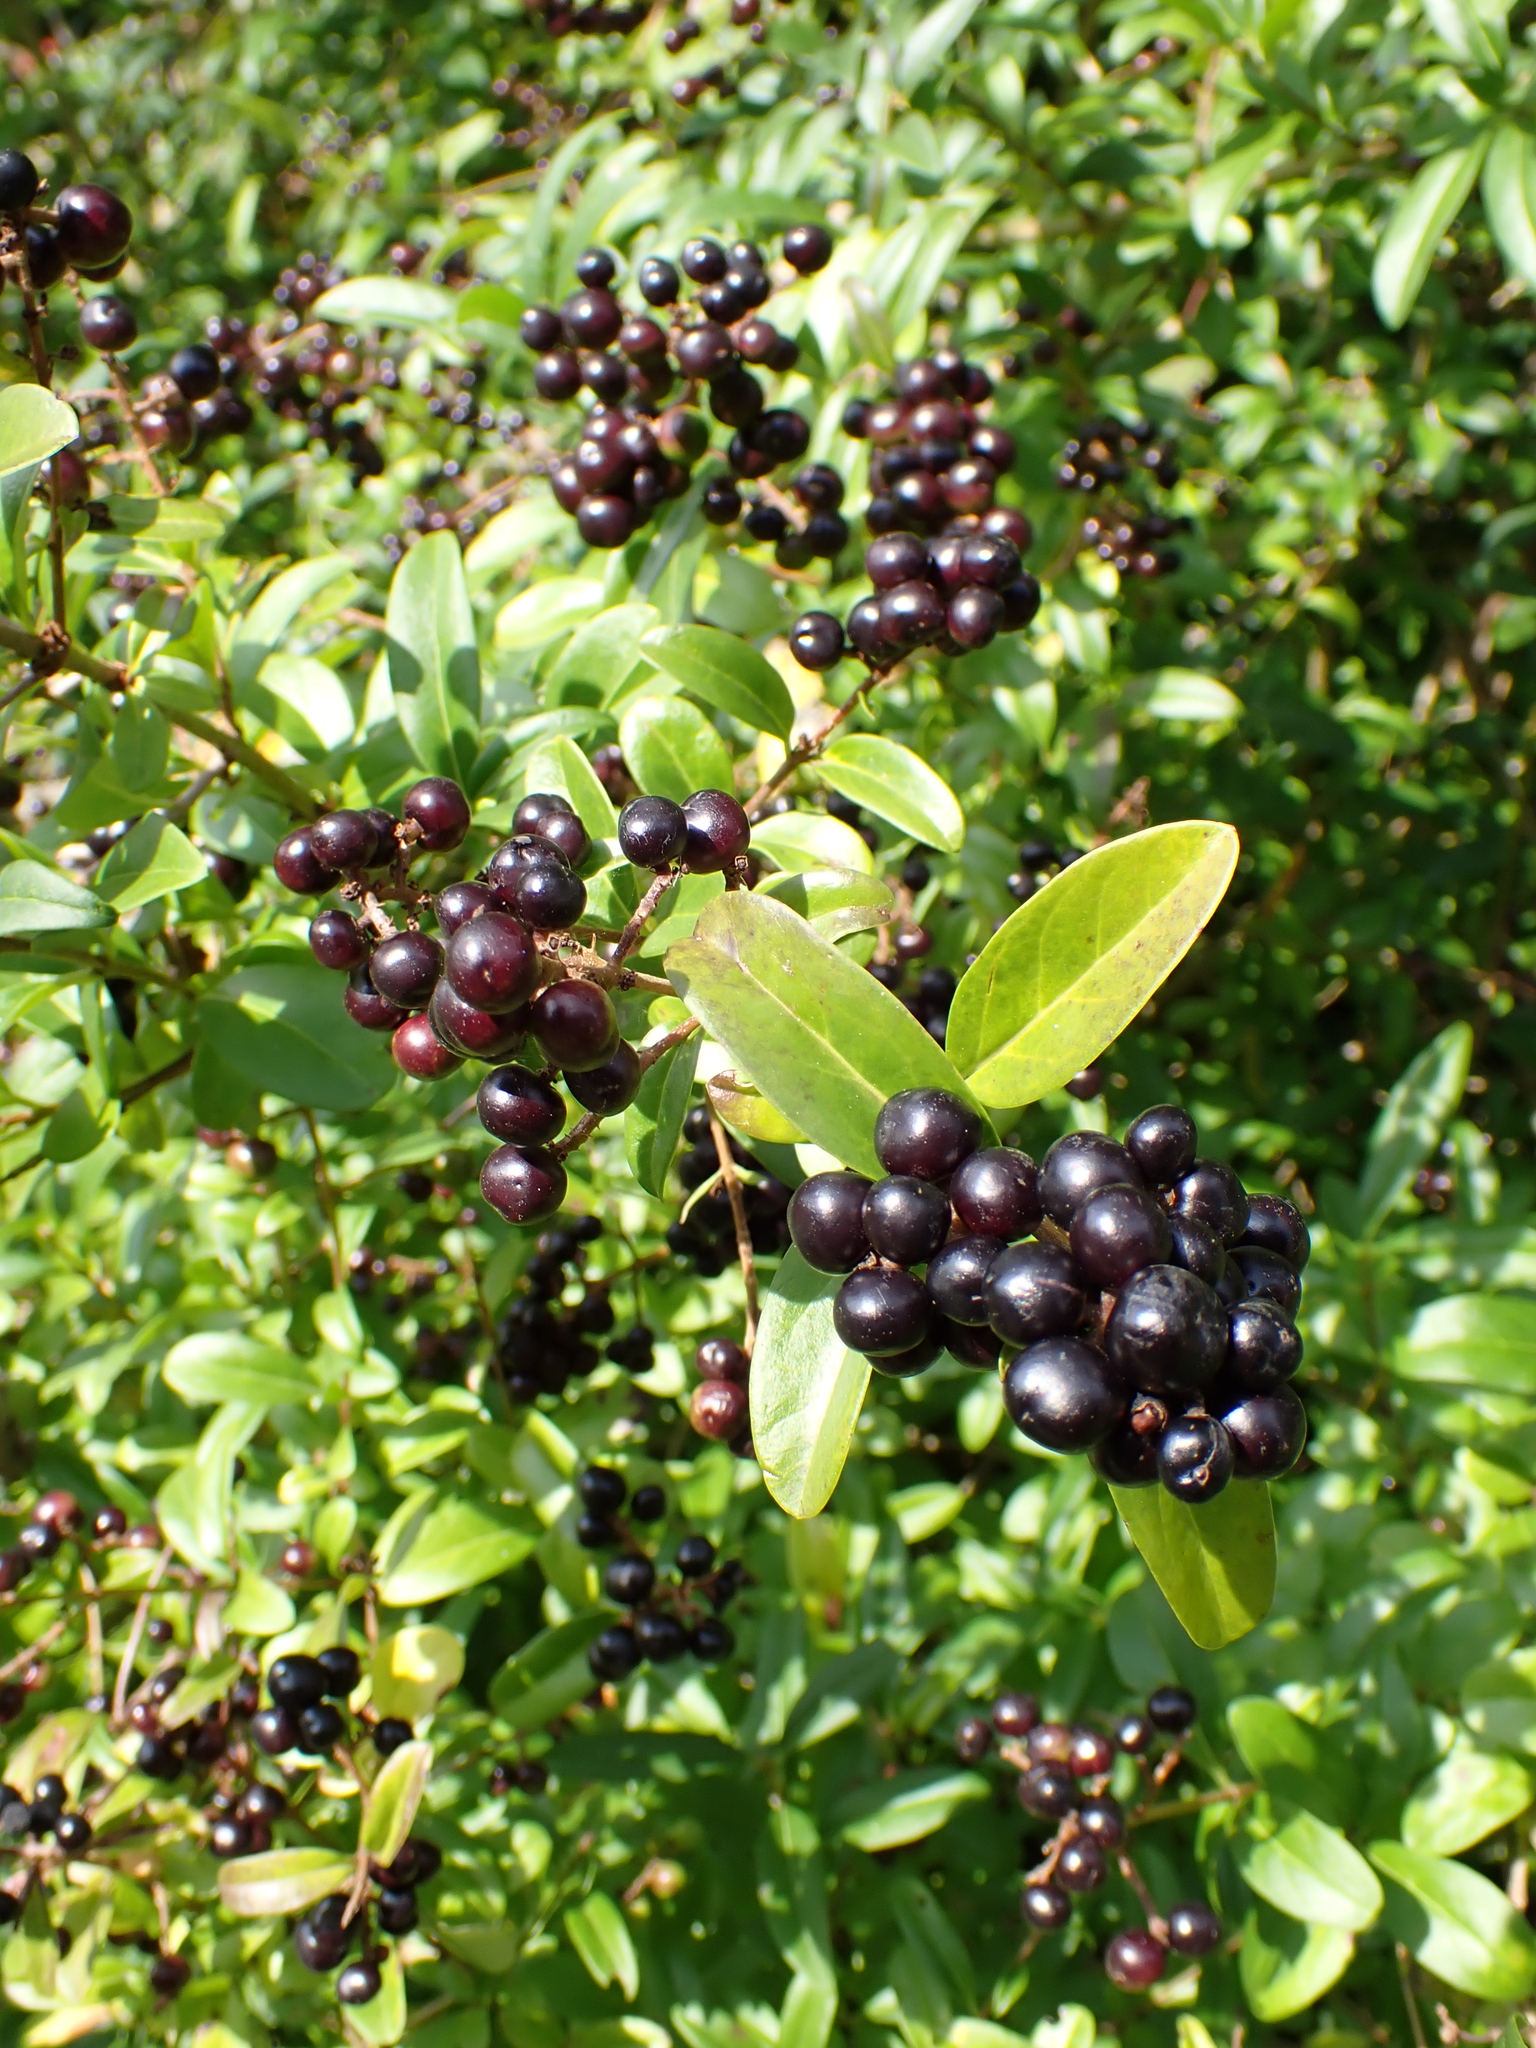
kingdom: Plantae
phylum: Tracheophyta
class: Magnoliopsida
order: Lamiales
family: Oleaceae
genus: Ligustrum
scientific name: Ligustrum vulgare
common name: Wild privet
